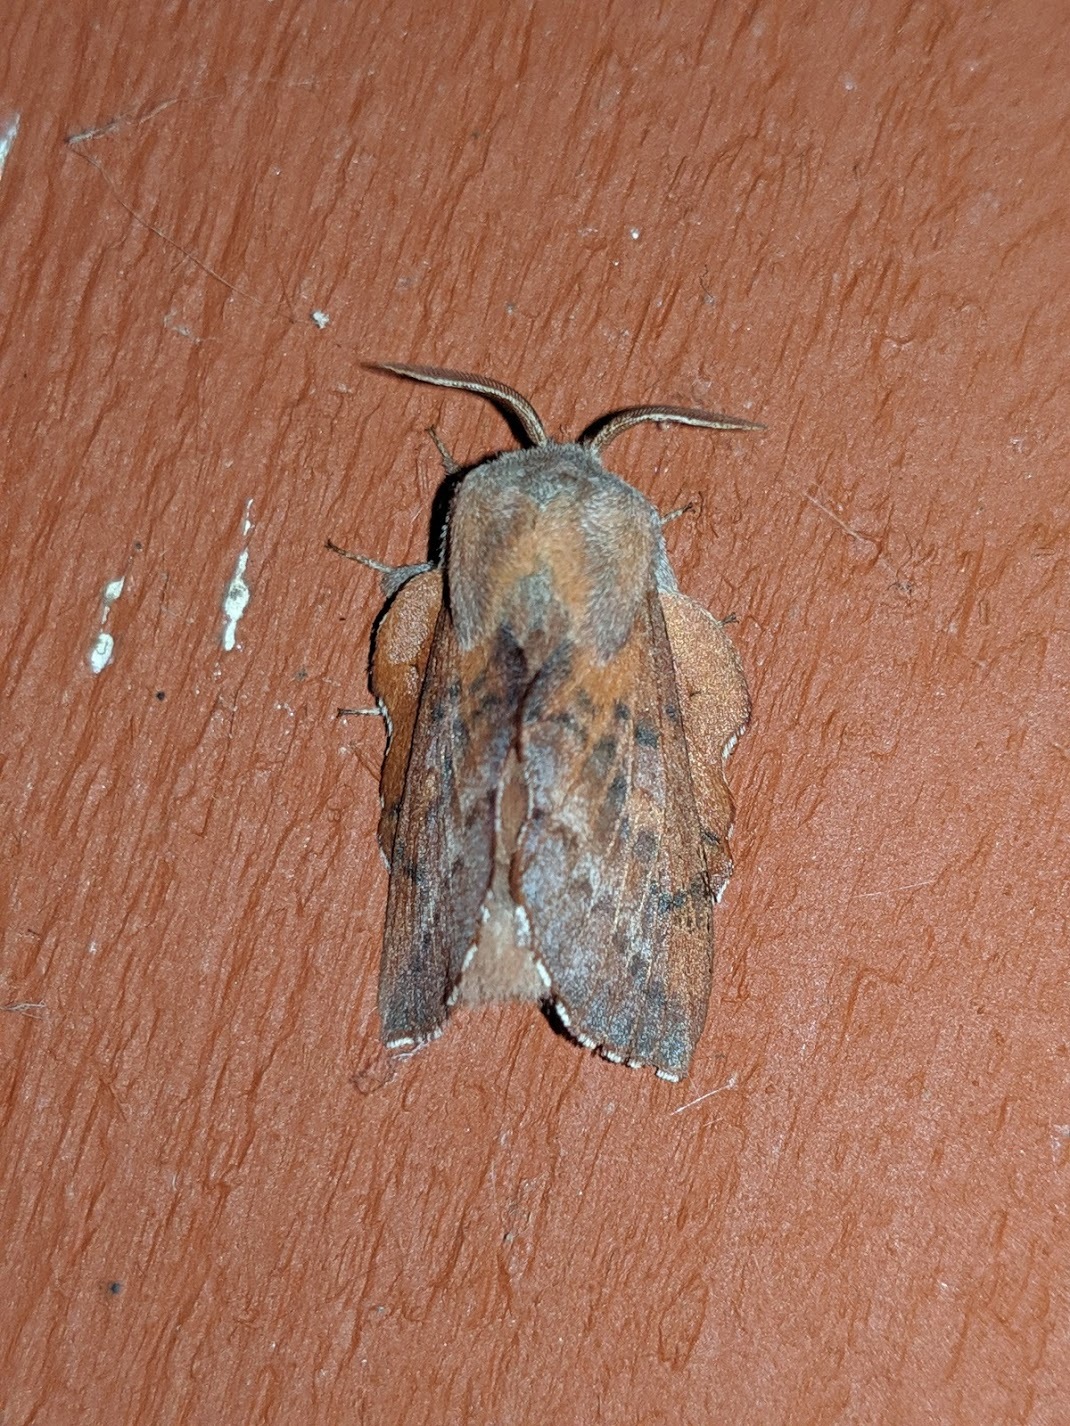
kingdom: Animalia
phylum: Arthropoda
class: Insecta
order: Lepidoptera
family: Lasiocampidae
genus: Phyllodesma
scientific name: Phyllodesma americana
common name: American lappet moth
